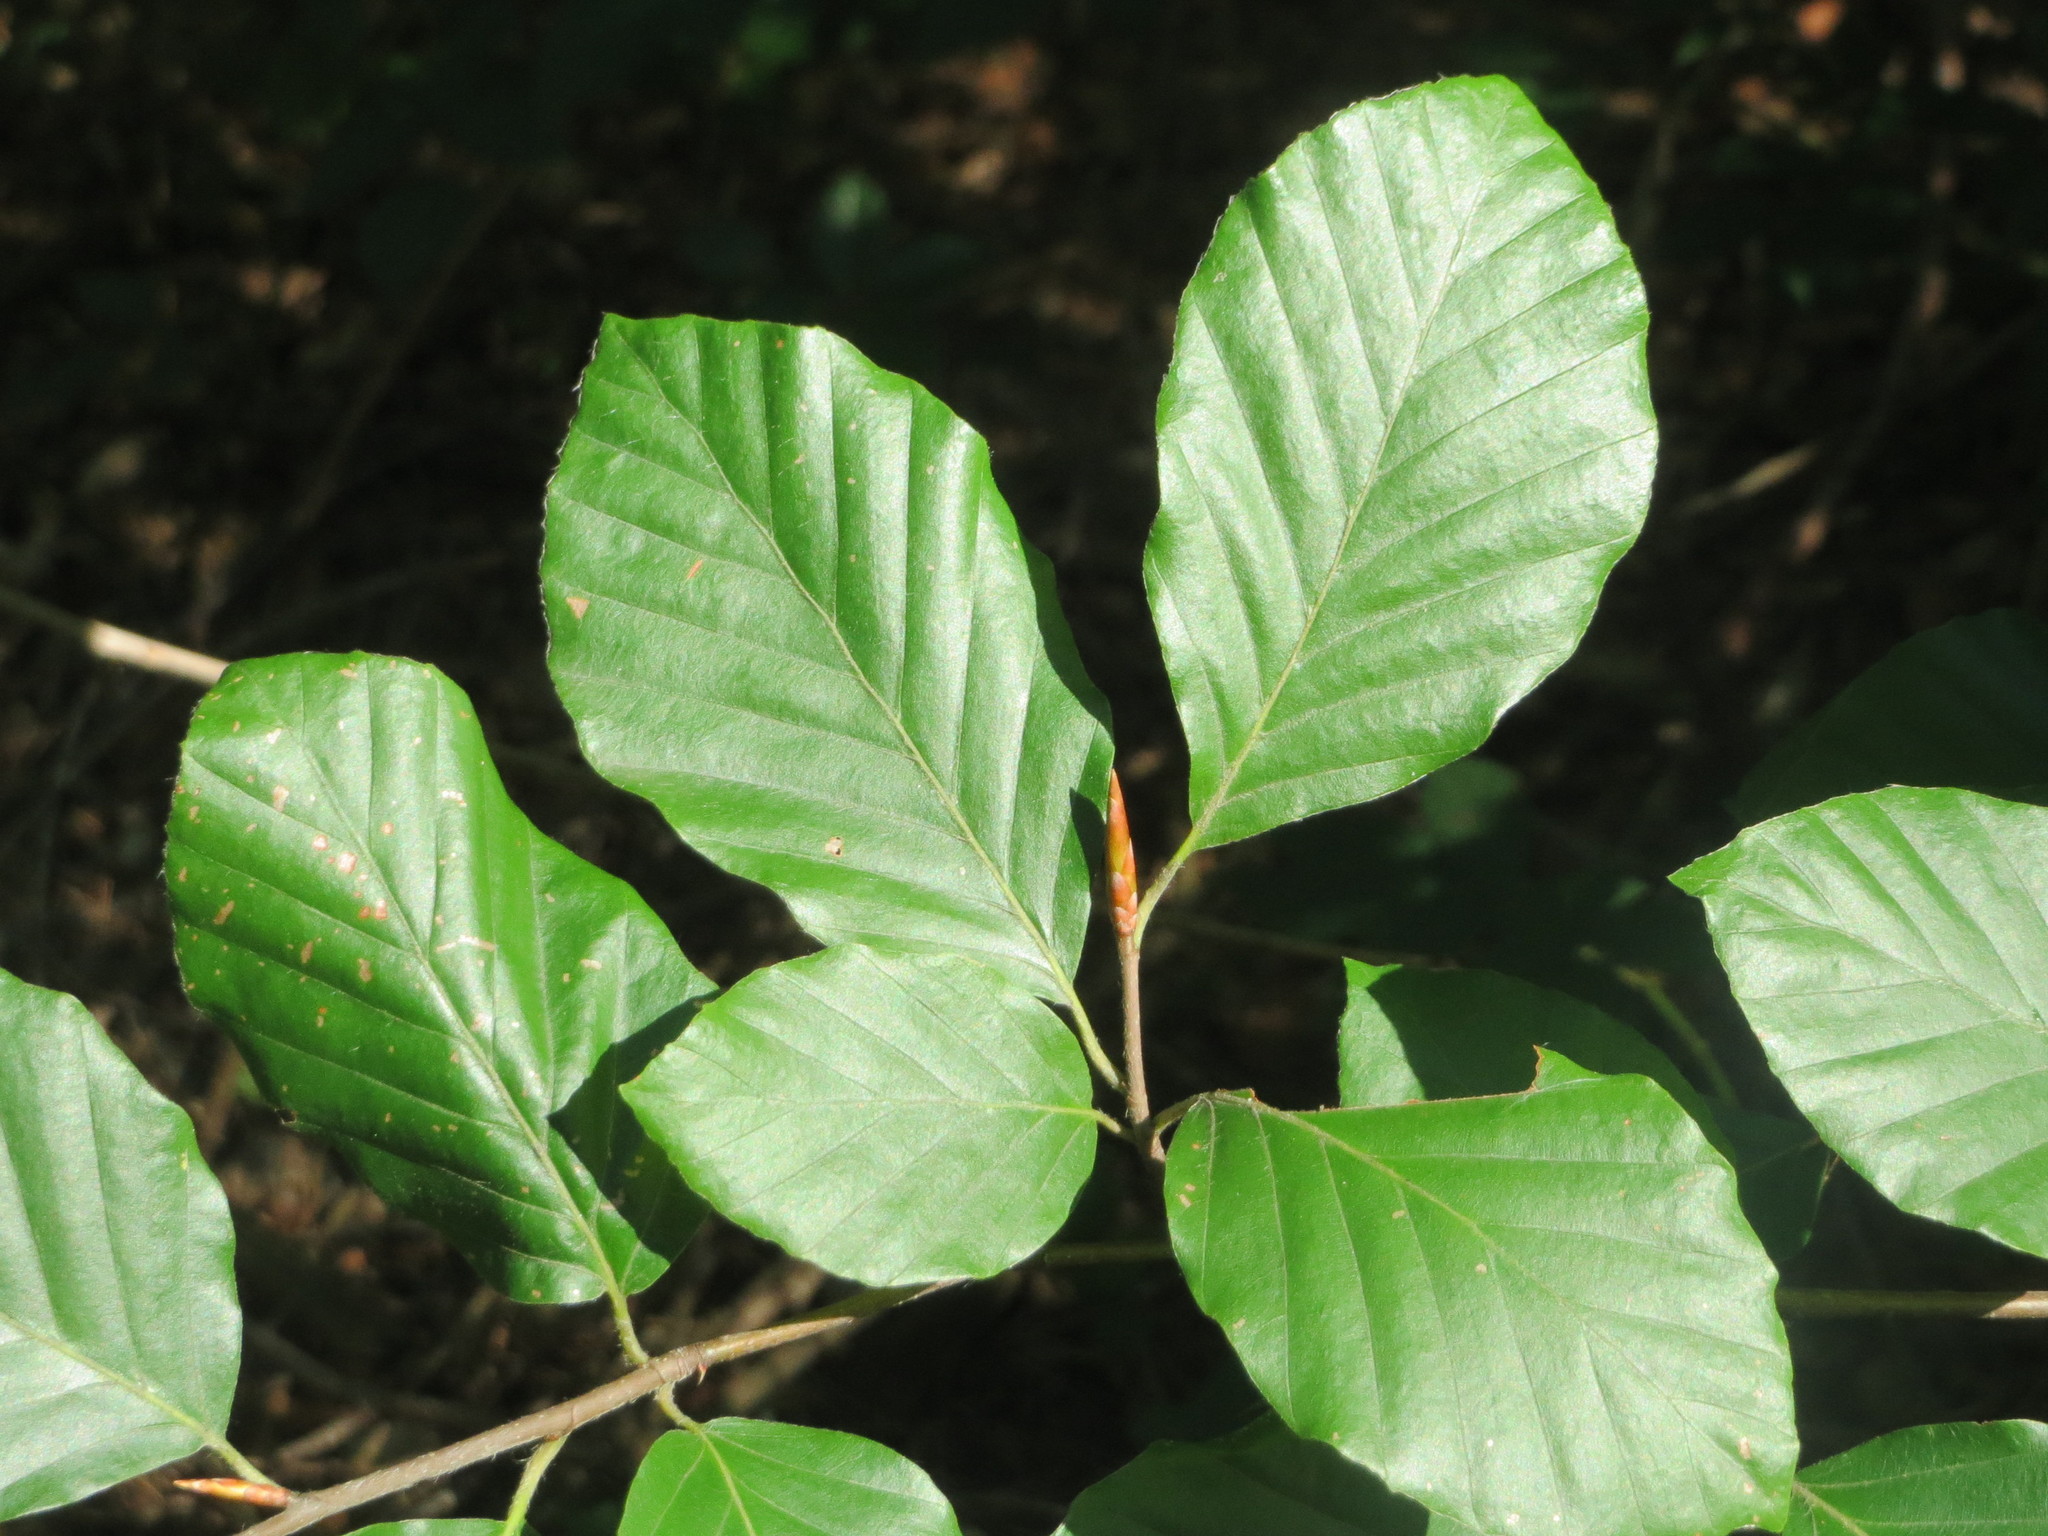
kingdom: Plantae
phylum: Tracheophyta
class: Magnoliopsida
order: Fagales
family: Fagaceae
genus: Fagus
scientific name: Fagus sylvatica
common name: Beech
